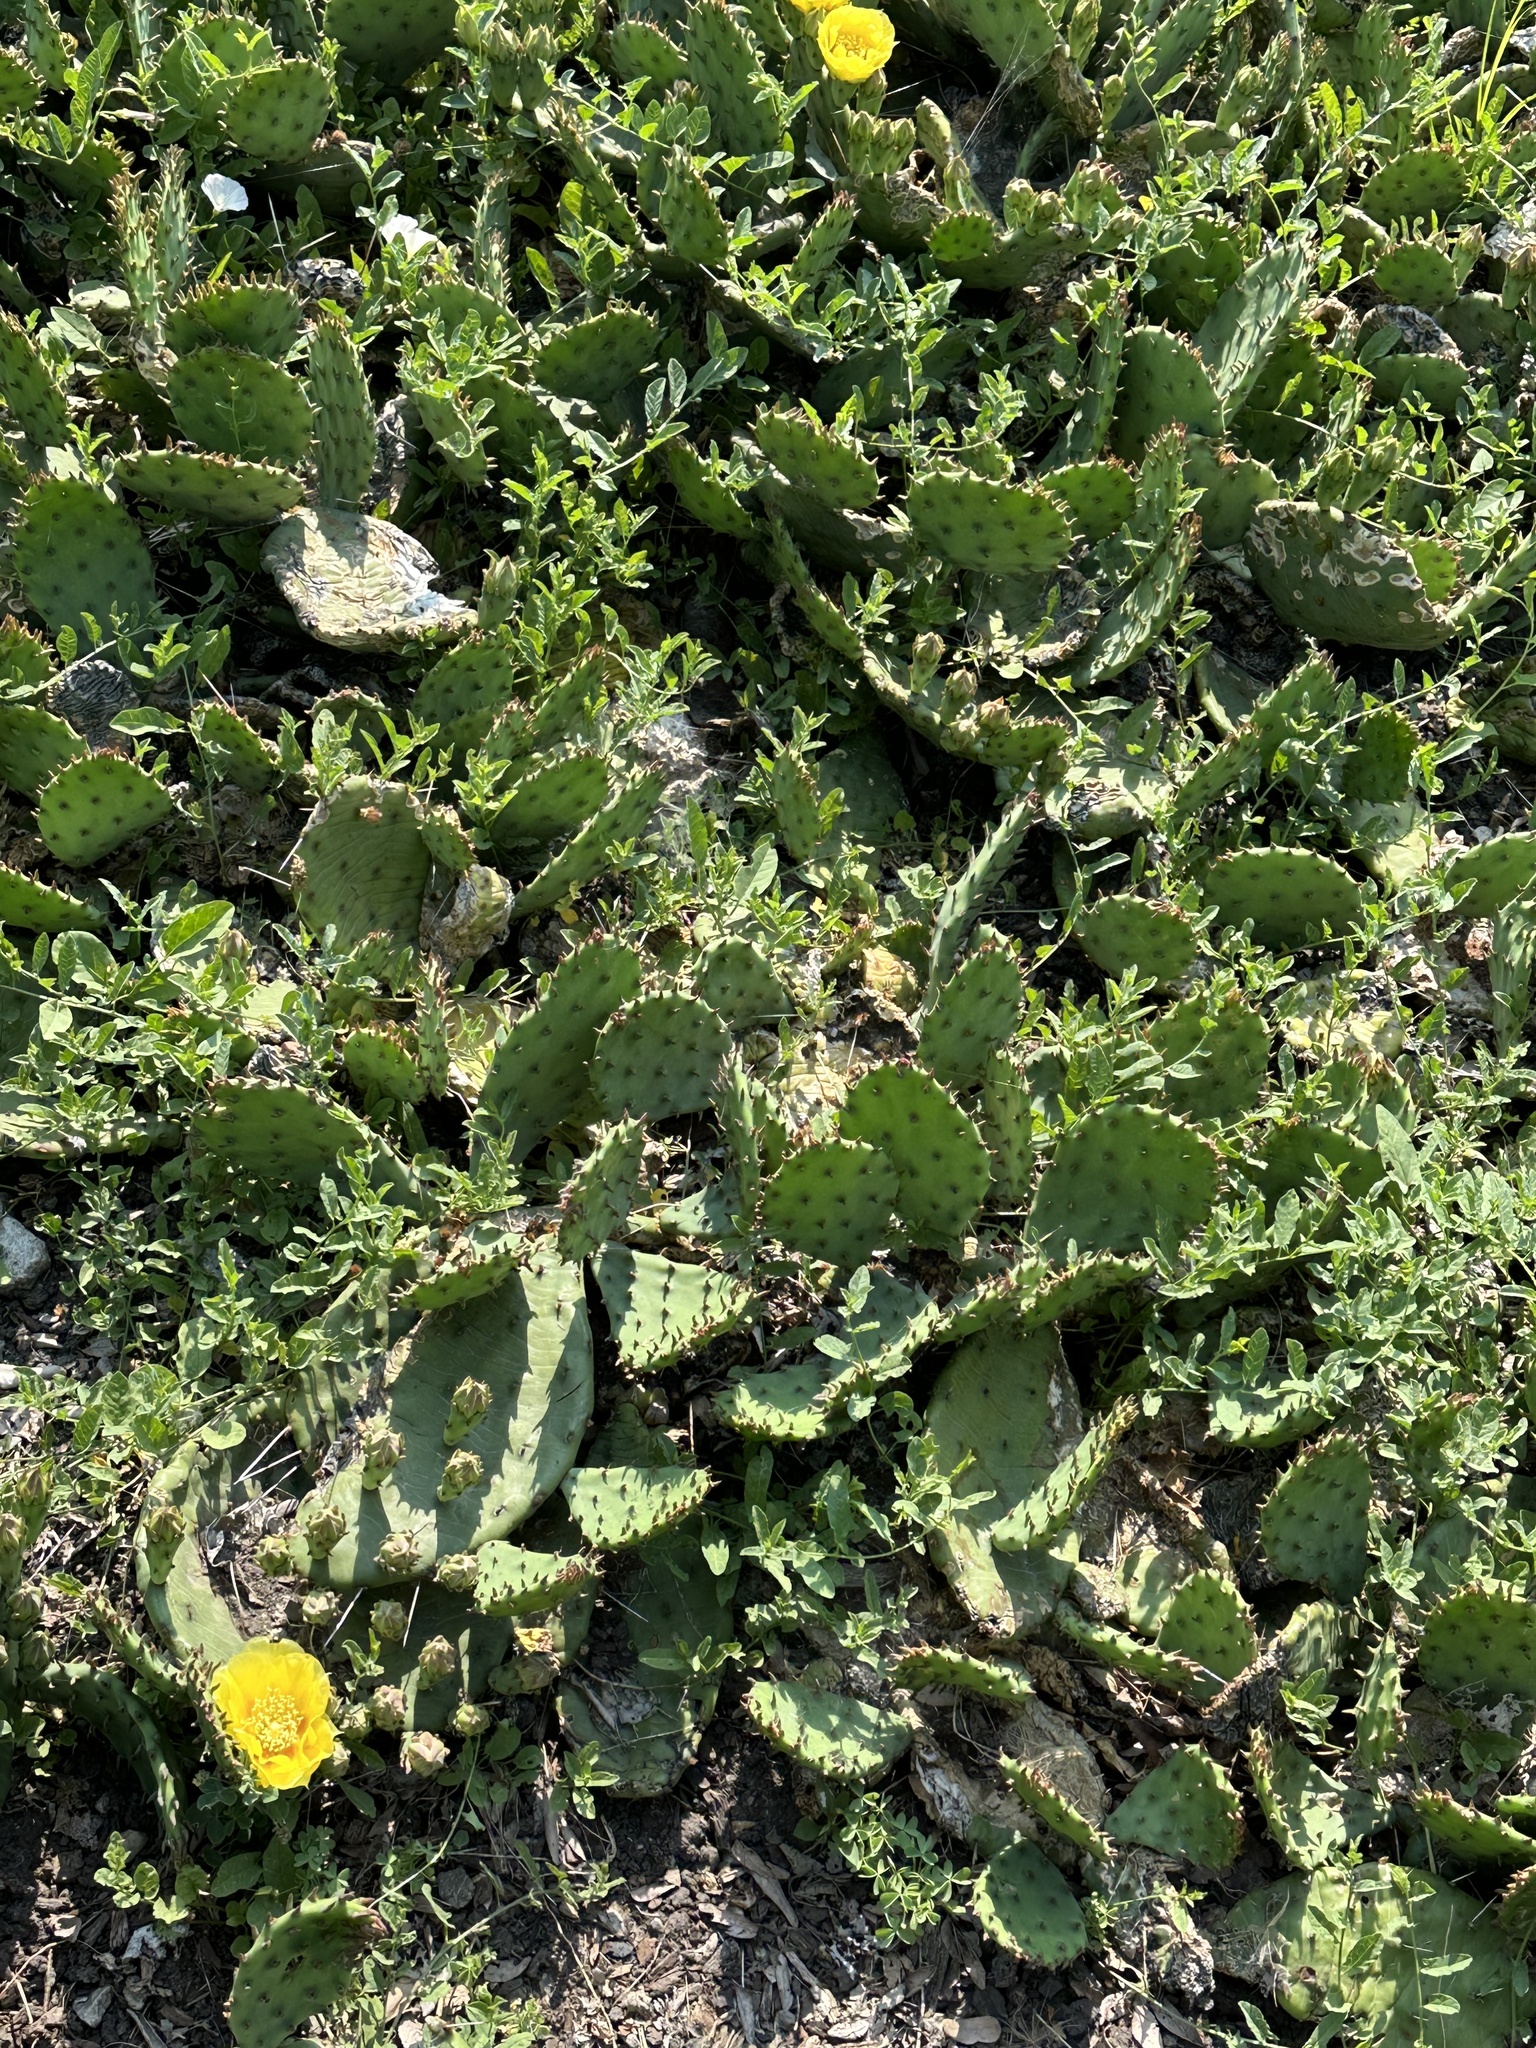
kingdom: Plantae
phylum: Tracheophyta
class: Magnoliopsida
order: Caryophyllales
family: Cactaceae
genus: Opuntia
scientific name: Opuntia humifusa
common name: Eastern prickly-pear
